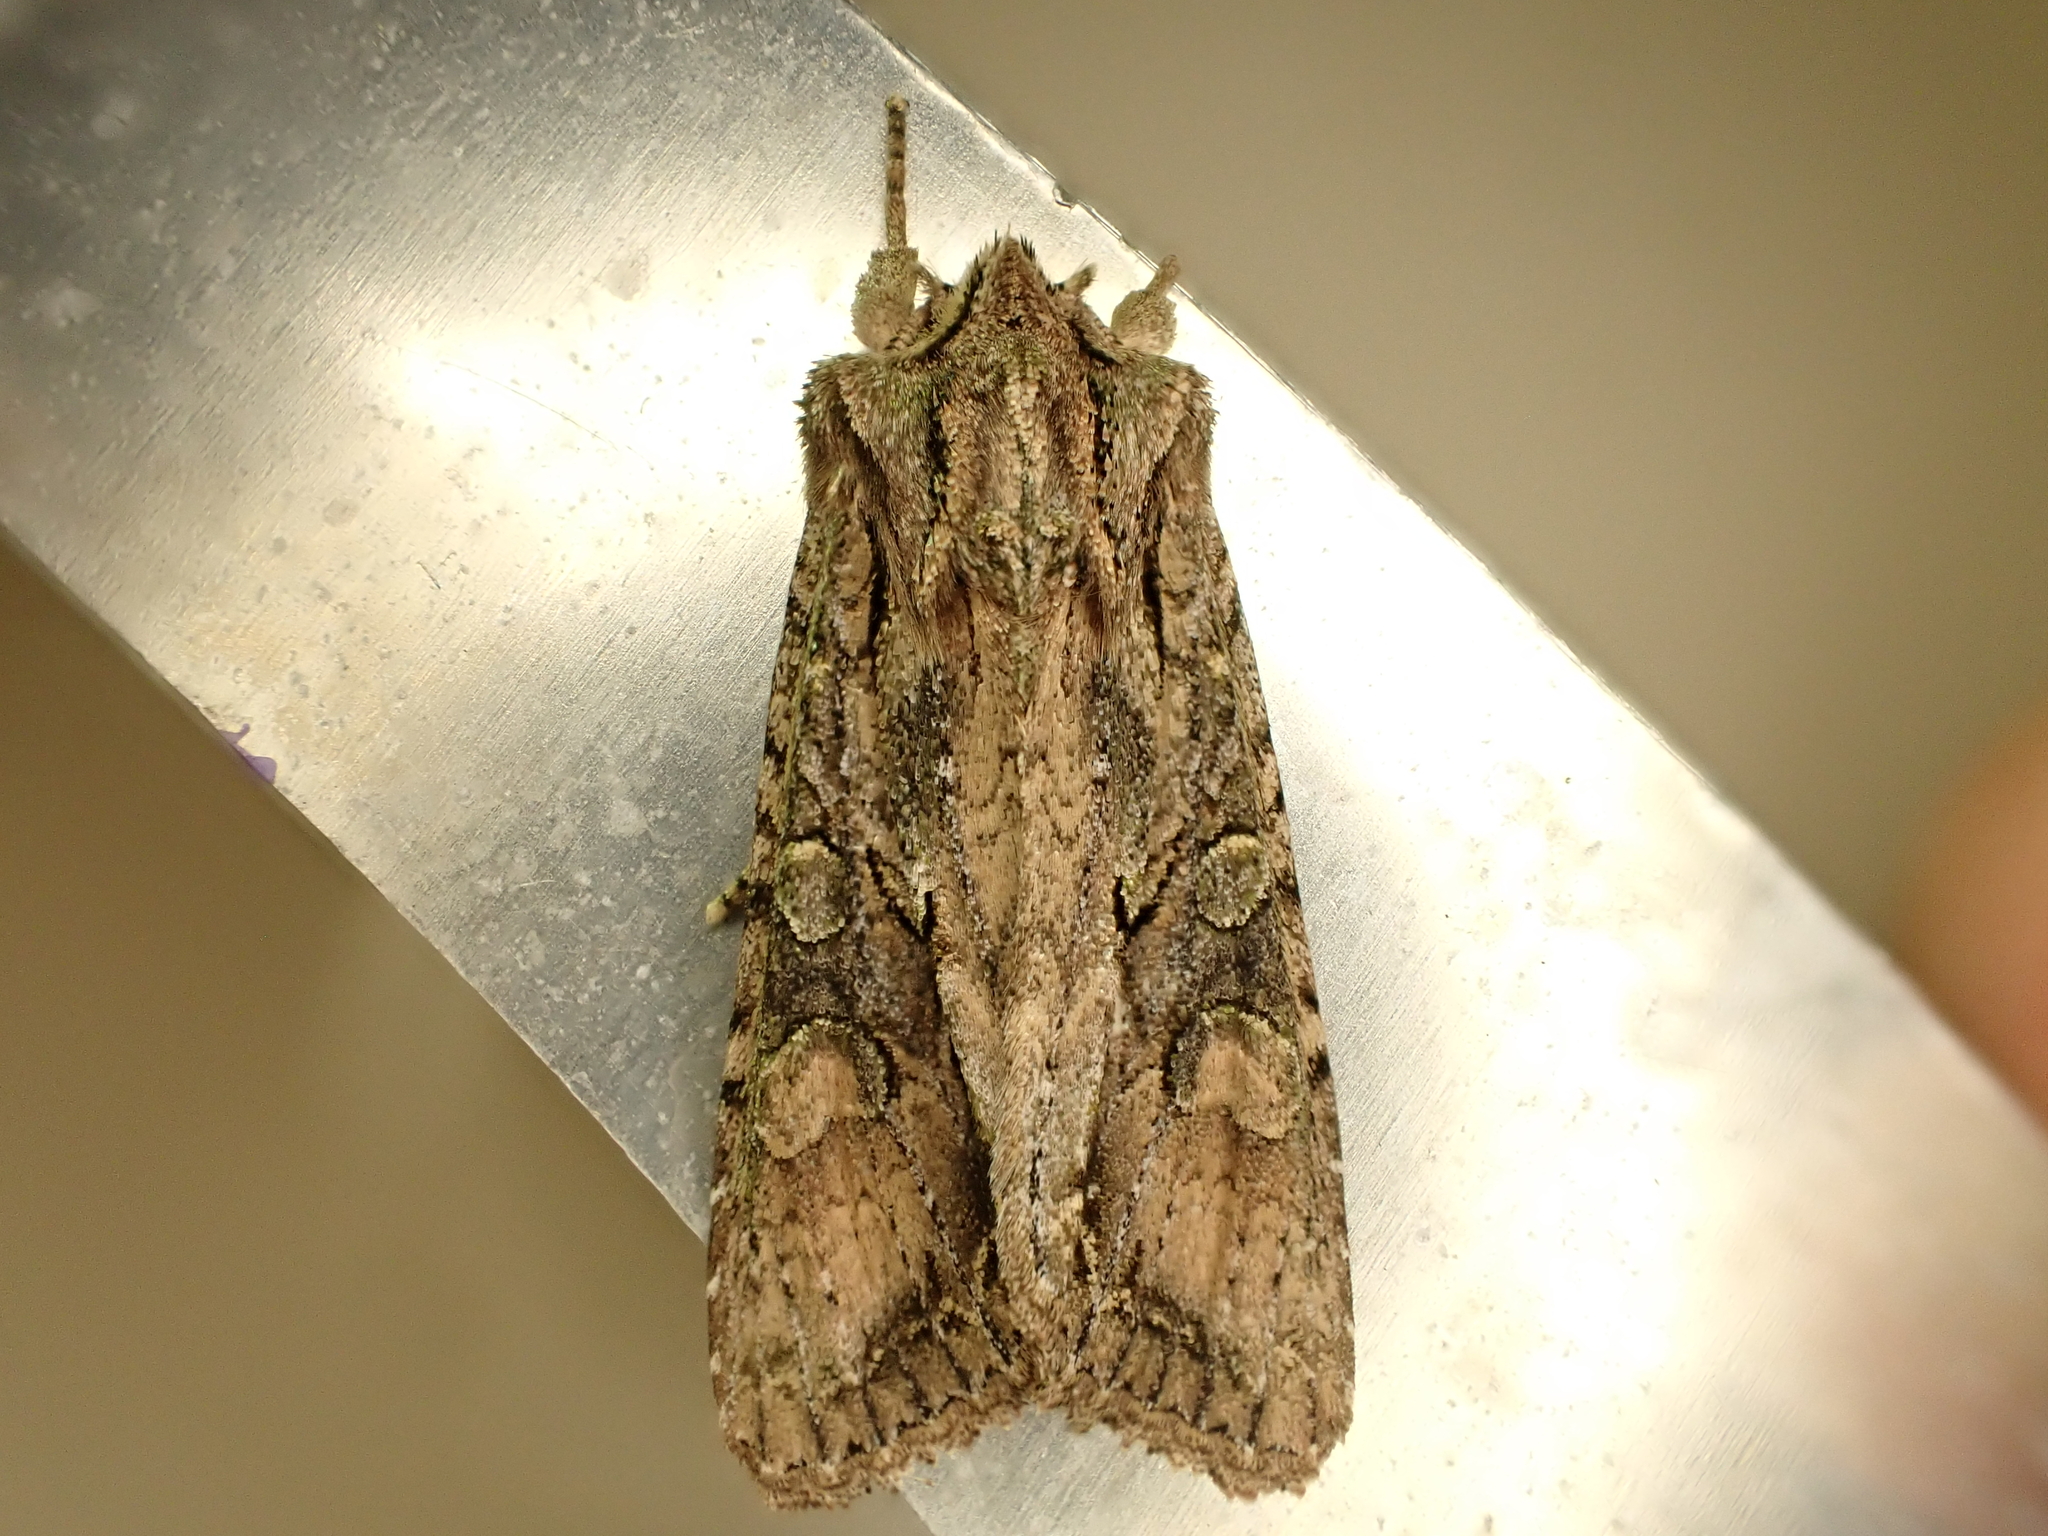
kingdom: Animalia
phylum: Arthropoda
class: Insecta
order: Lepidoptera
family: Noctuidae
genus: Ichneutica
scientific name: Ichneutica mutans
